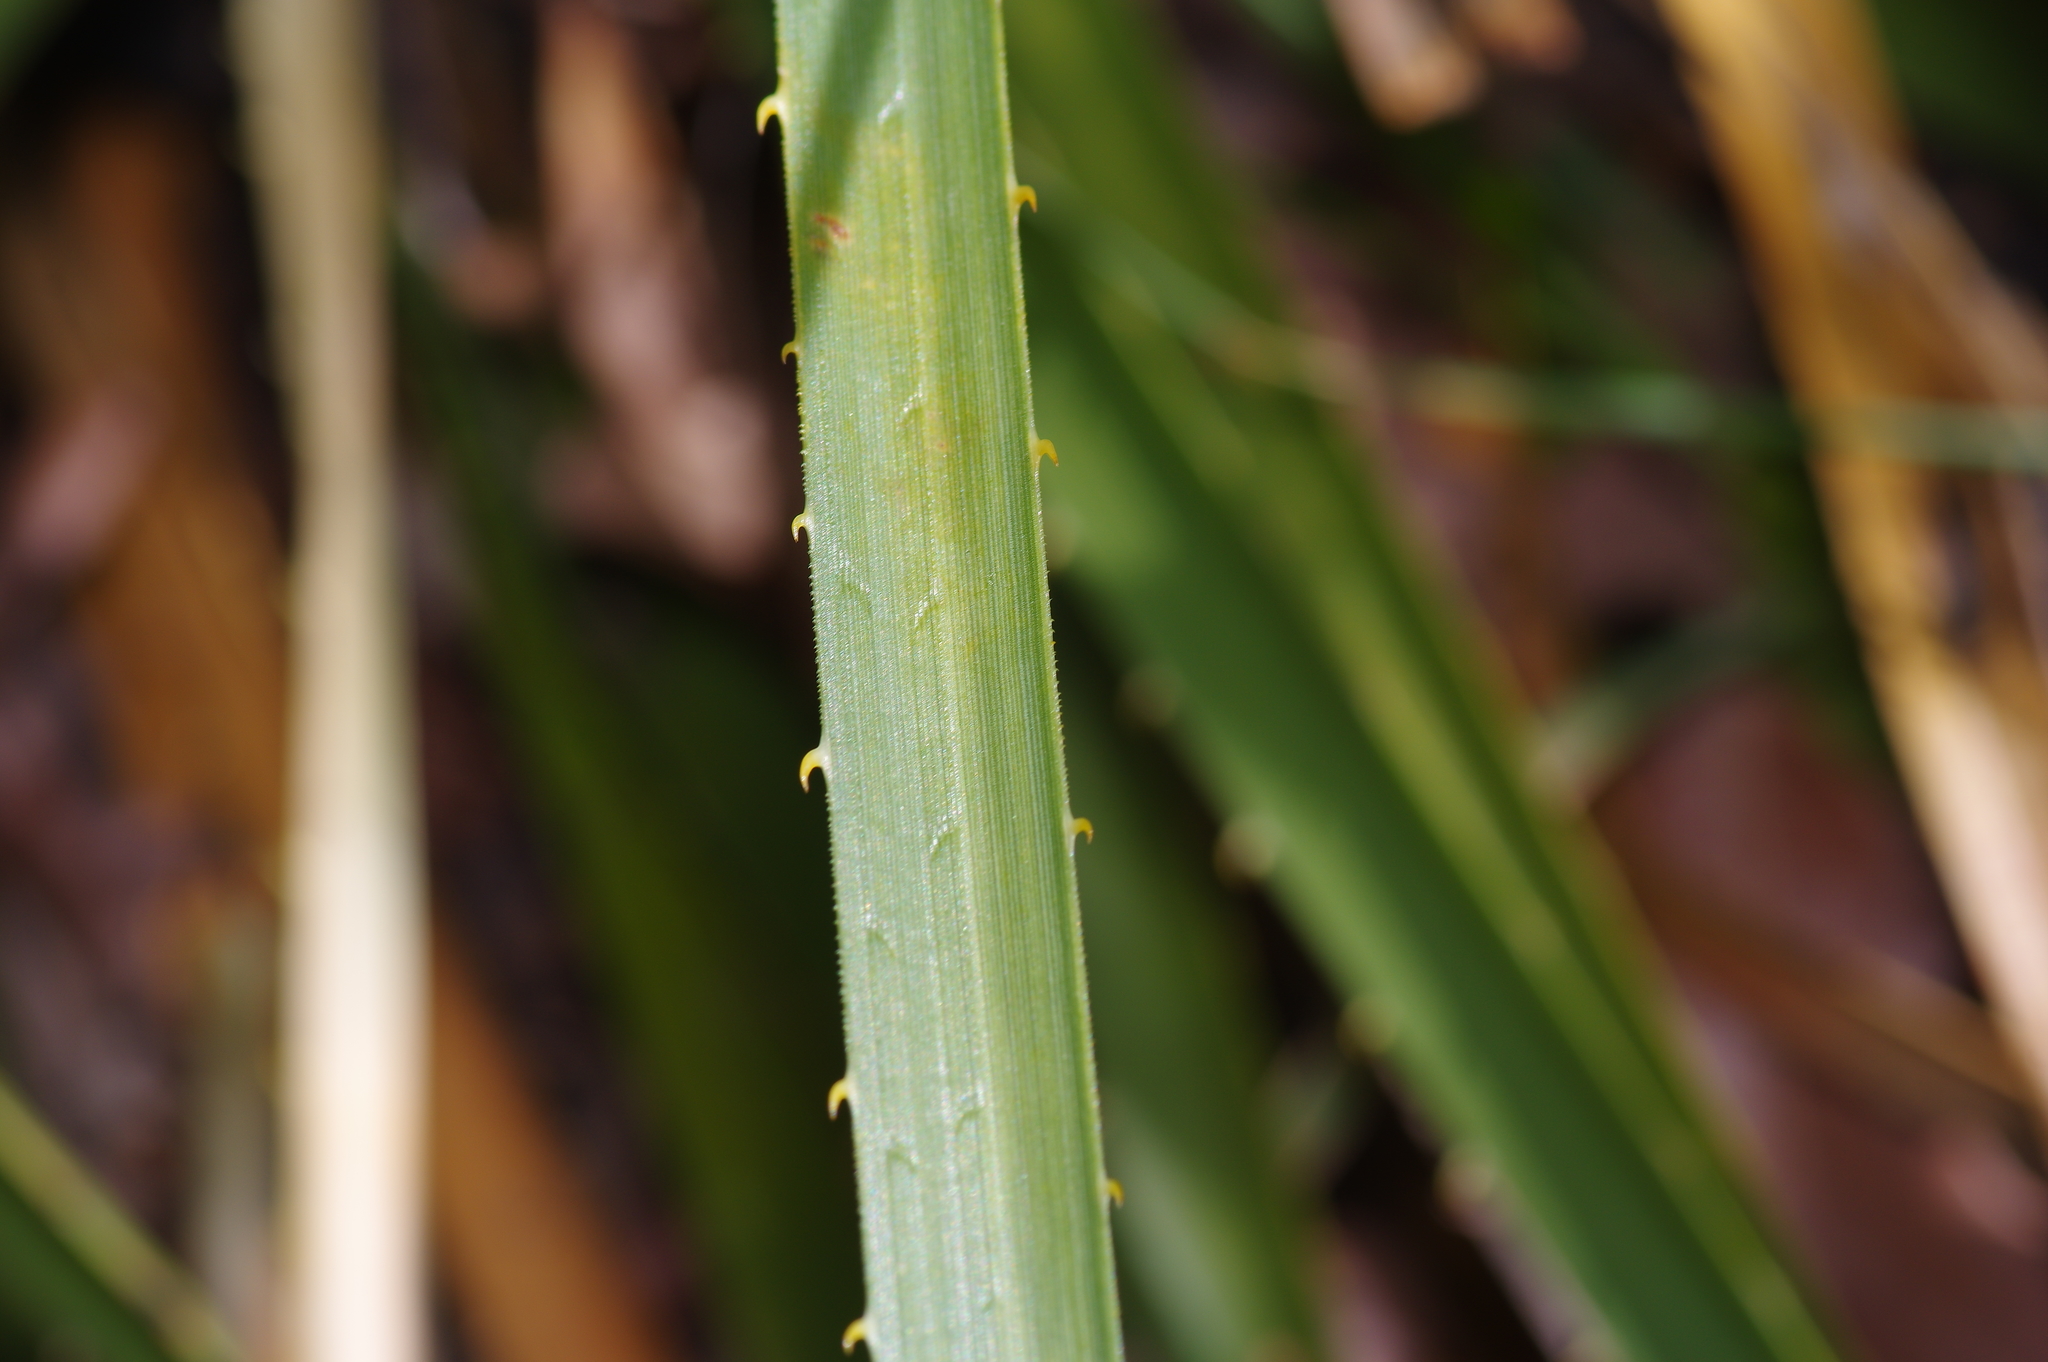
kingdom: Plantae
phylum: Tracheophyta
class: Liliopsida
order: Asparagales
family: Asparagaceae
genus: Dasylirion
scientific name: Dasylirion texanum
